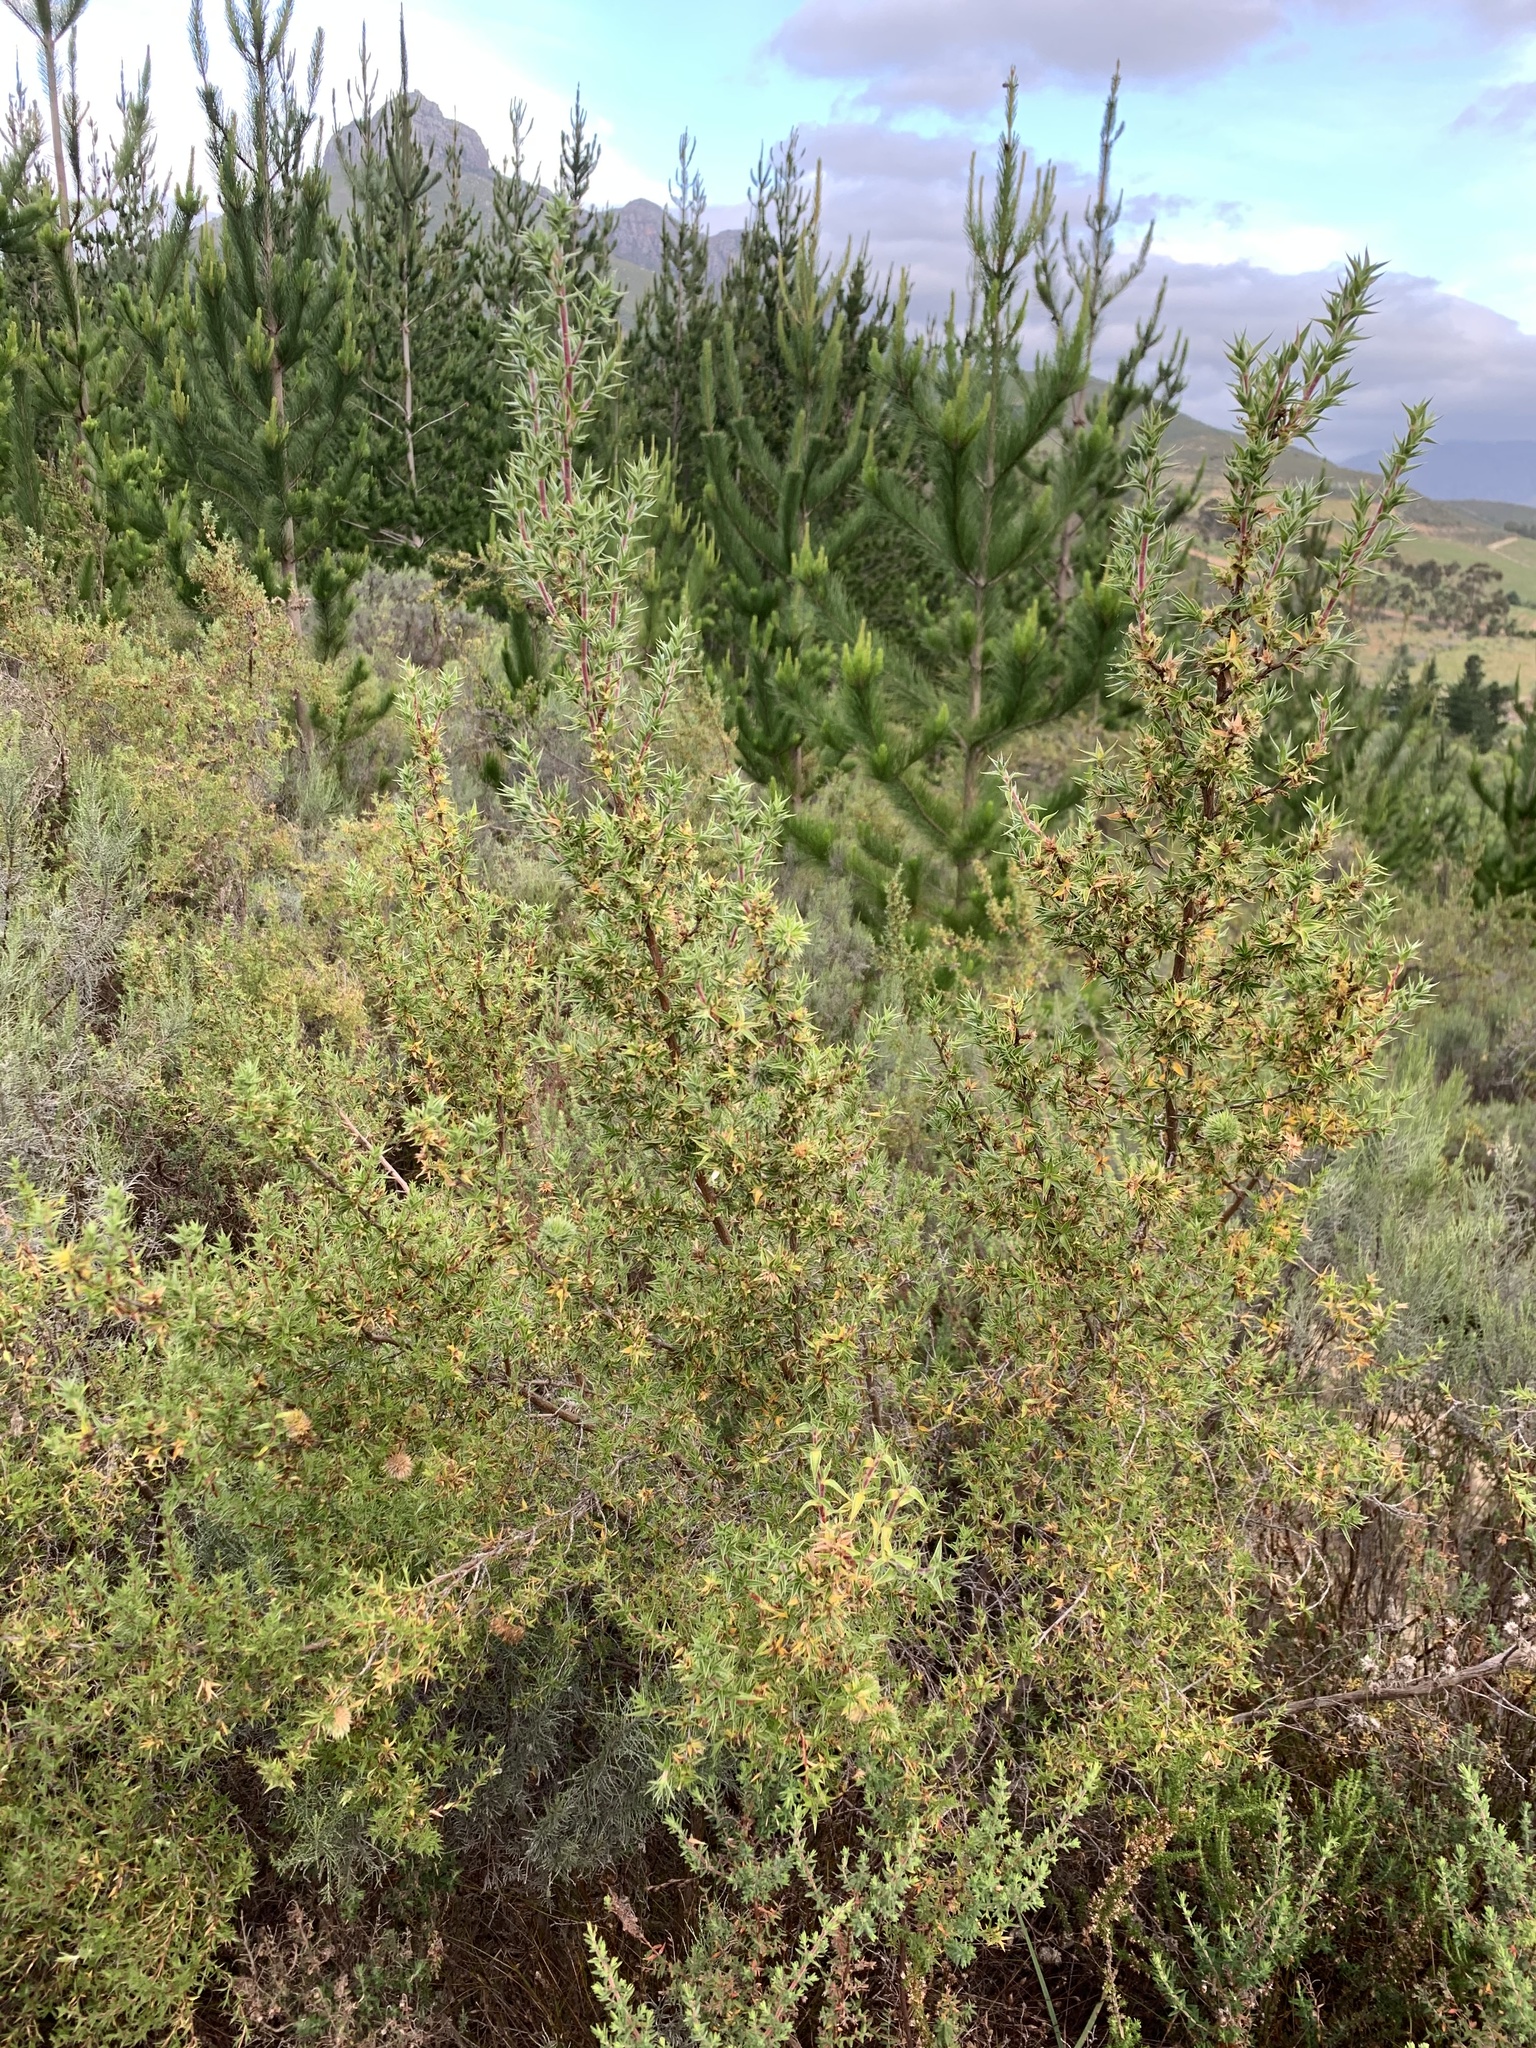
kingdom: Plantae
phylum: Tracheophyta
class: Magnoliopsida
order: Rosales
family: Rosaceae
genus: Cliffortia
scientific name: Cliffortia ruscifolia
